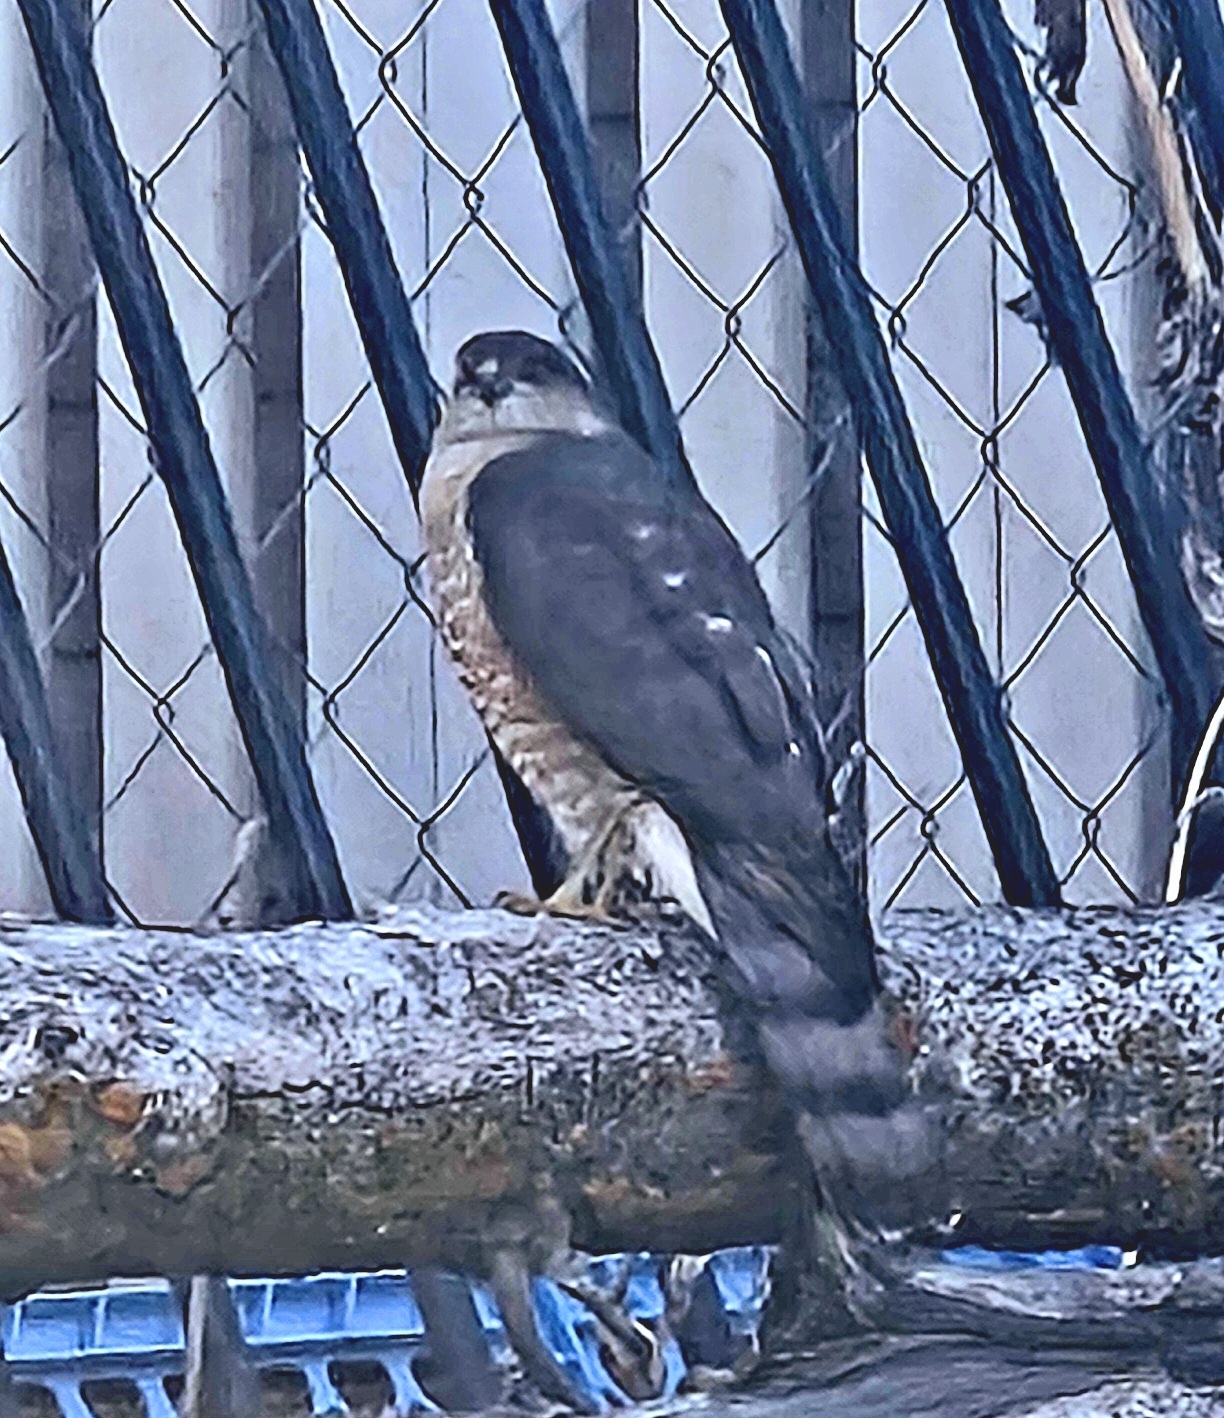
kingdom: Animalia
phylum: Chordata
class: Aves
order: Accipitriformes
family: Accipitridae
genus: Accipiter
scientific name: Accipiter striatus
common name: Sharp-shinned hawk
